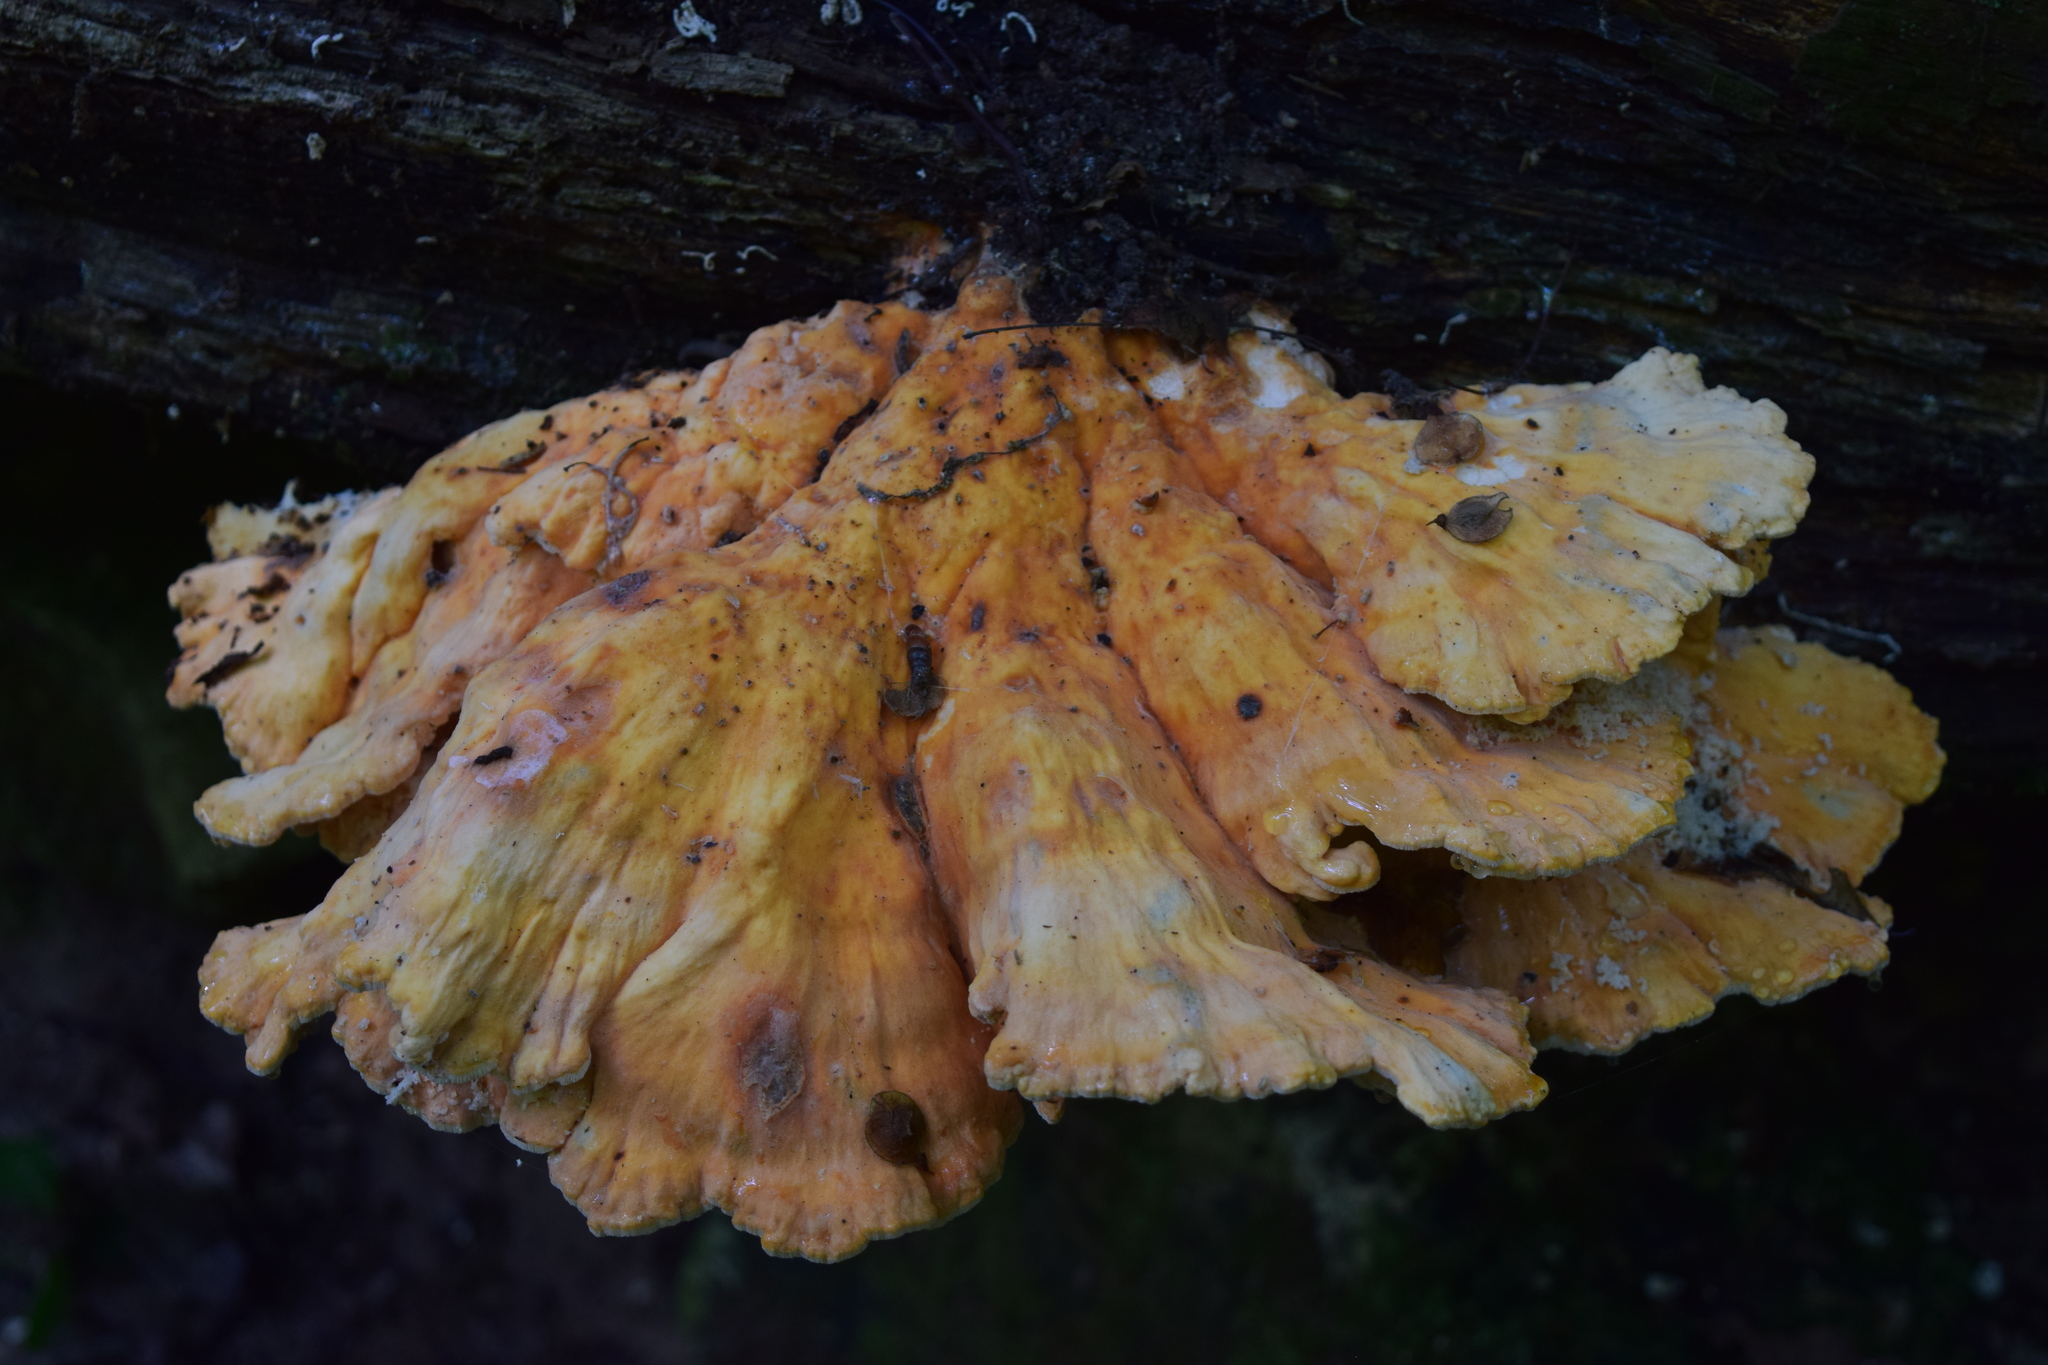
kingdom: Fungi
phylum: Basidiomycota
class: Agaricomycetes
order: Polyporales
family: Laetiporaceae
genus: Laetiporus
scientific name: Laetiporus sulphureus
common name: Chicken of the woods
